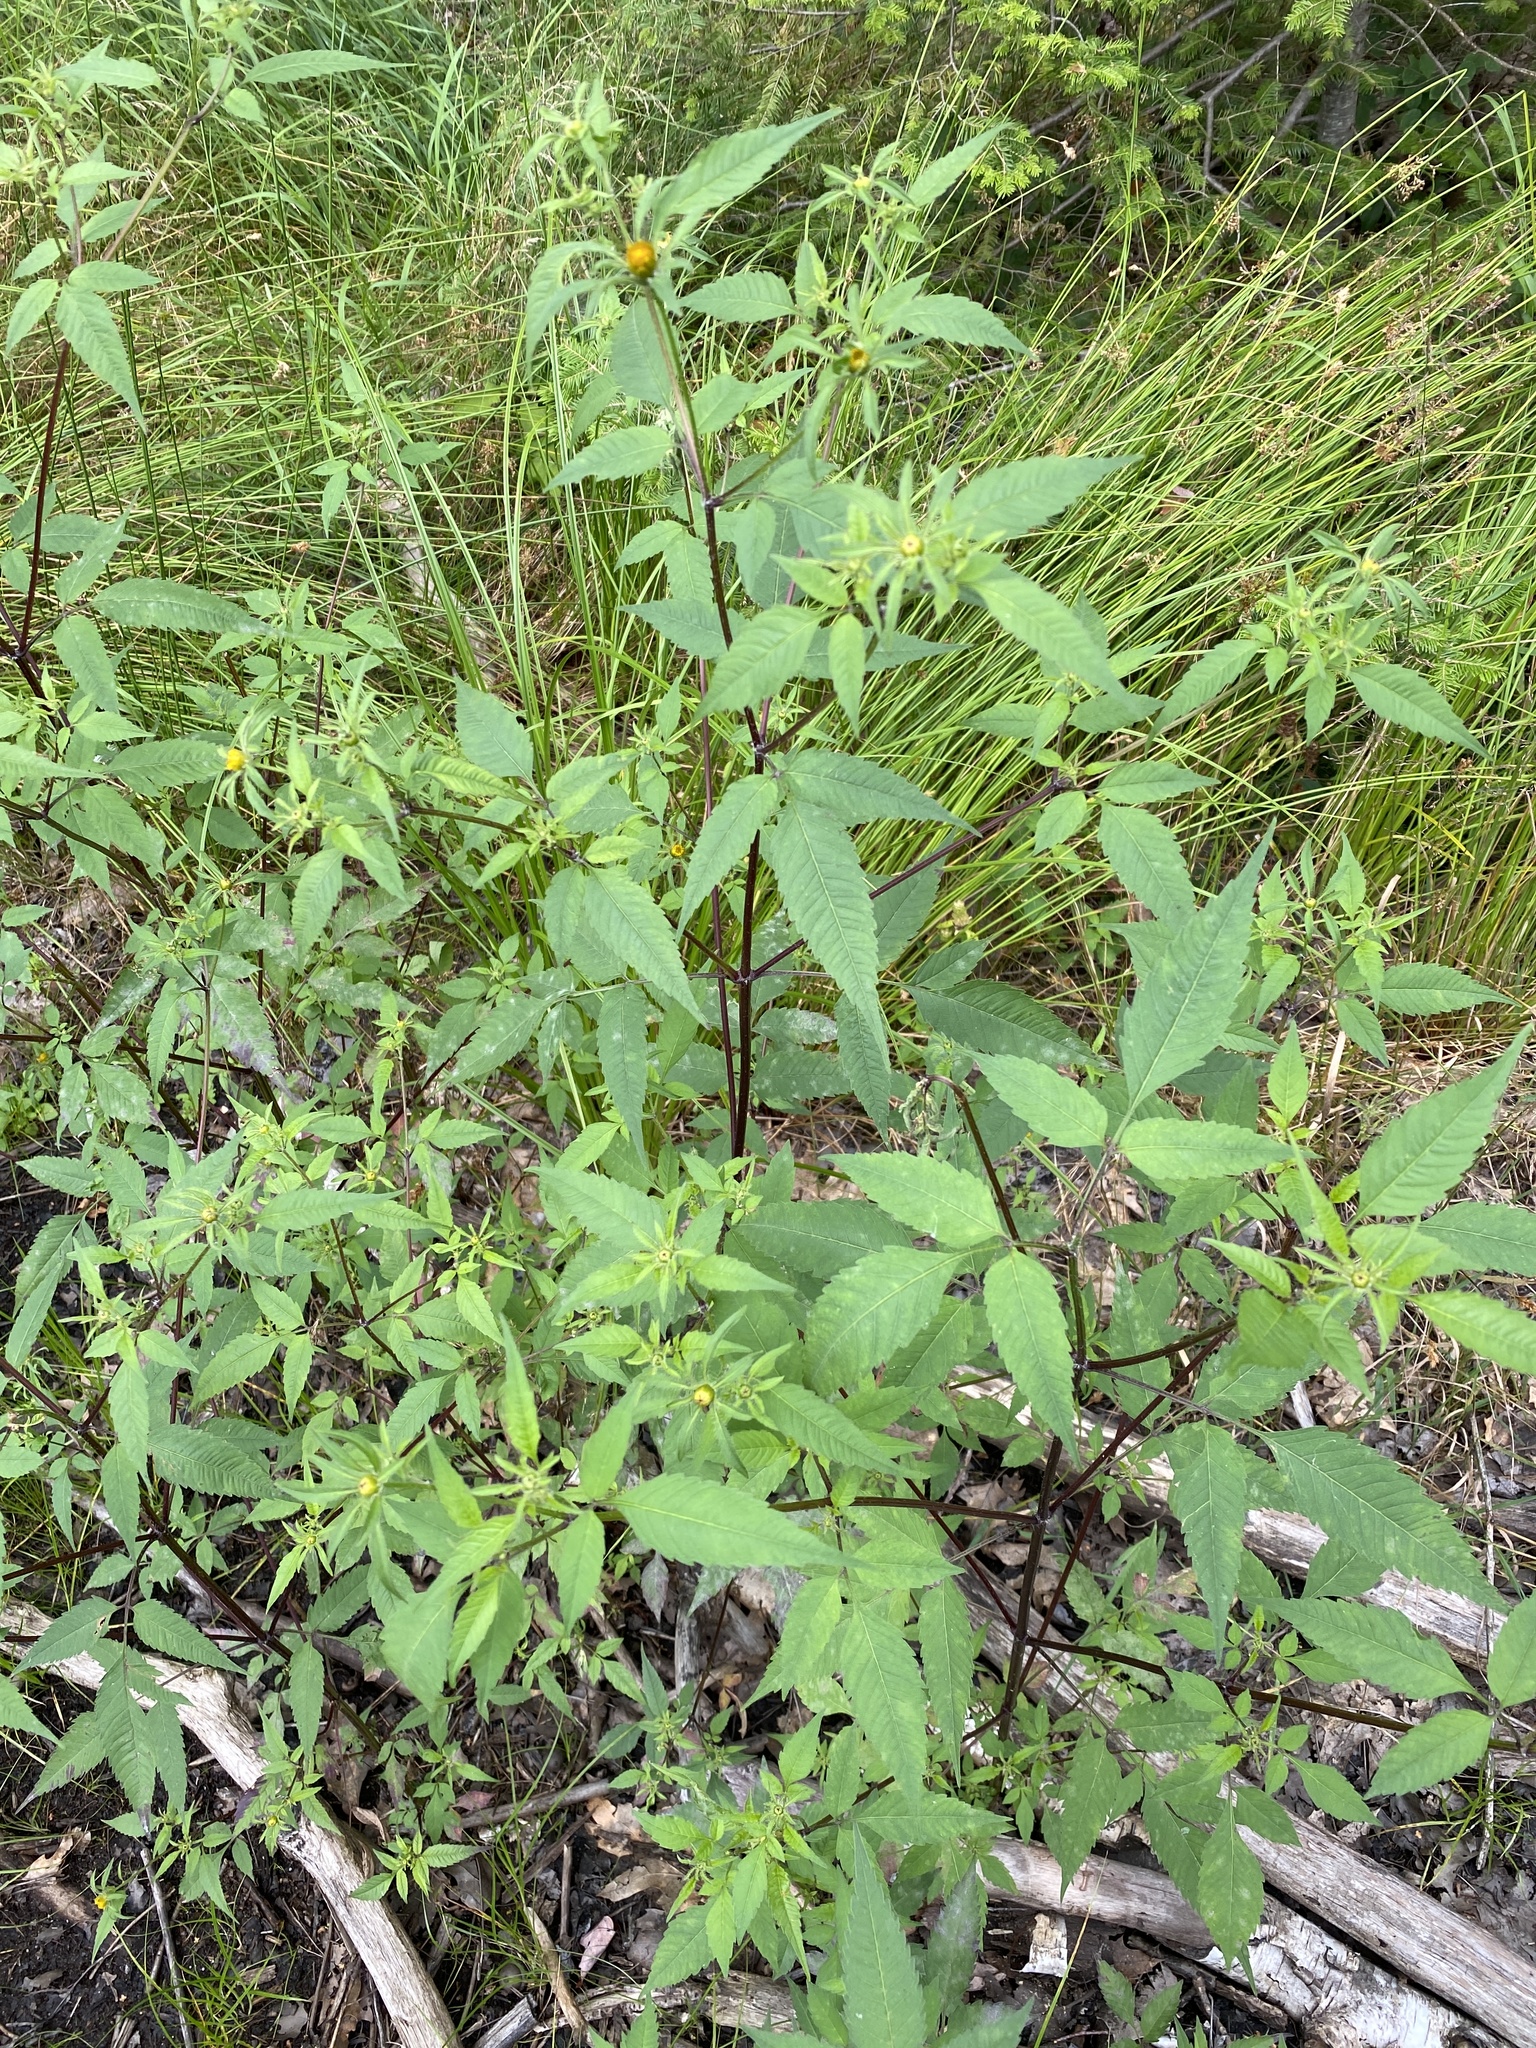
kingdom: Plantae
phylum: Tracheophyta
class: Magnoliopsida
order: Asterales
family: Asteraceae
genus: Bidens
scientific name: Bidens frondosa
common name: Beggarticks
